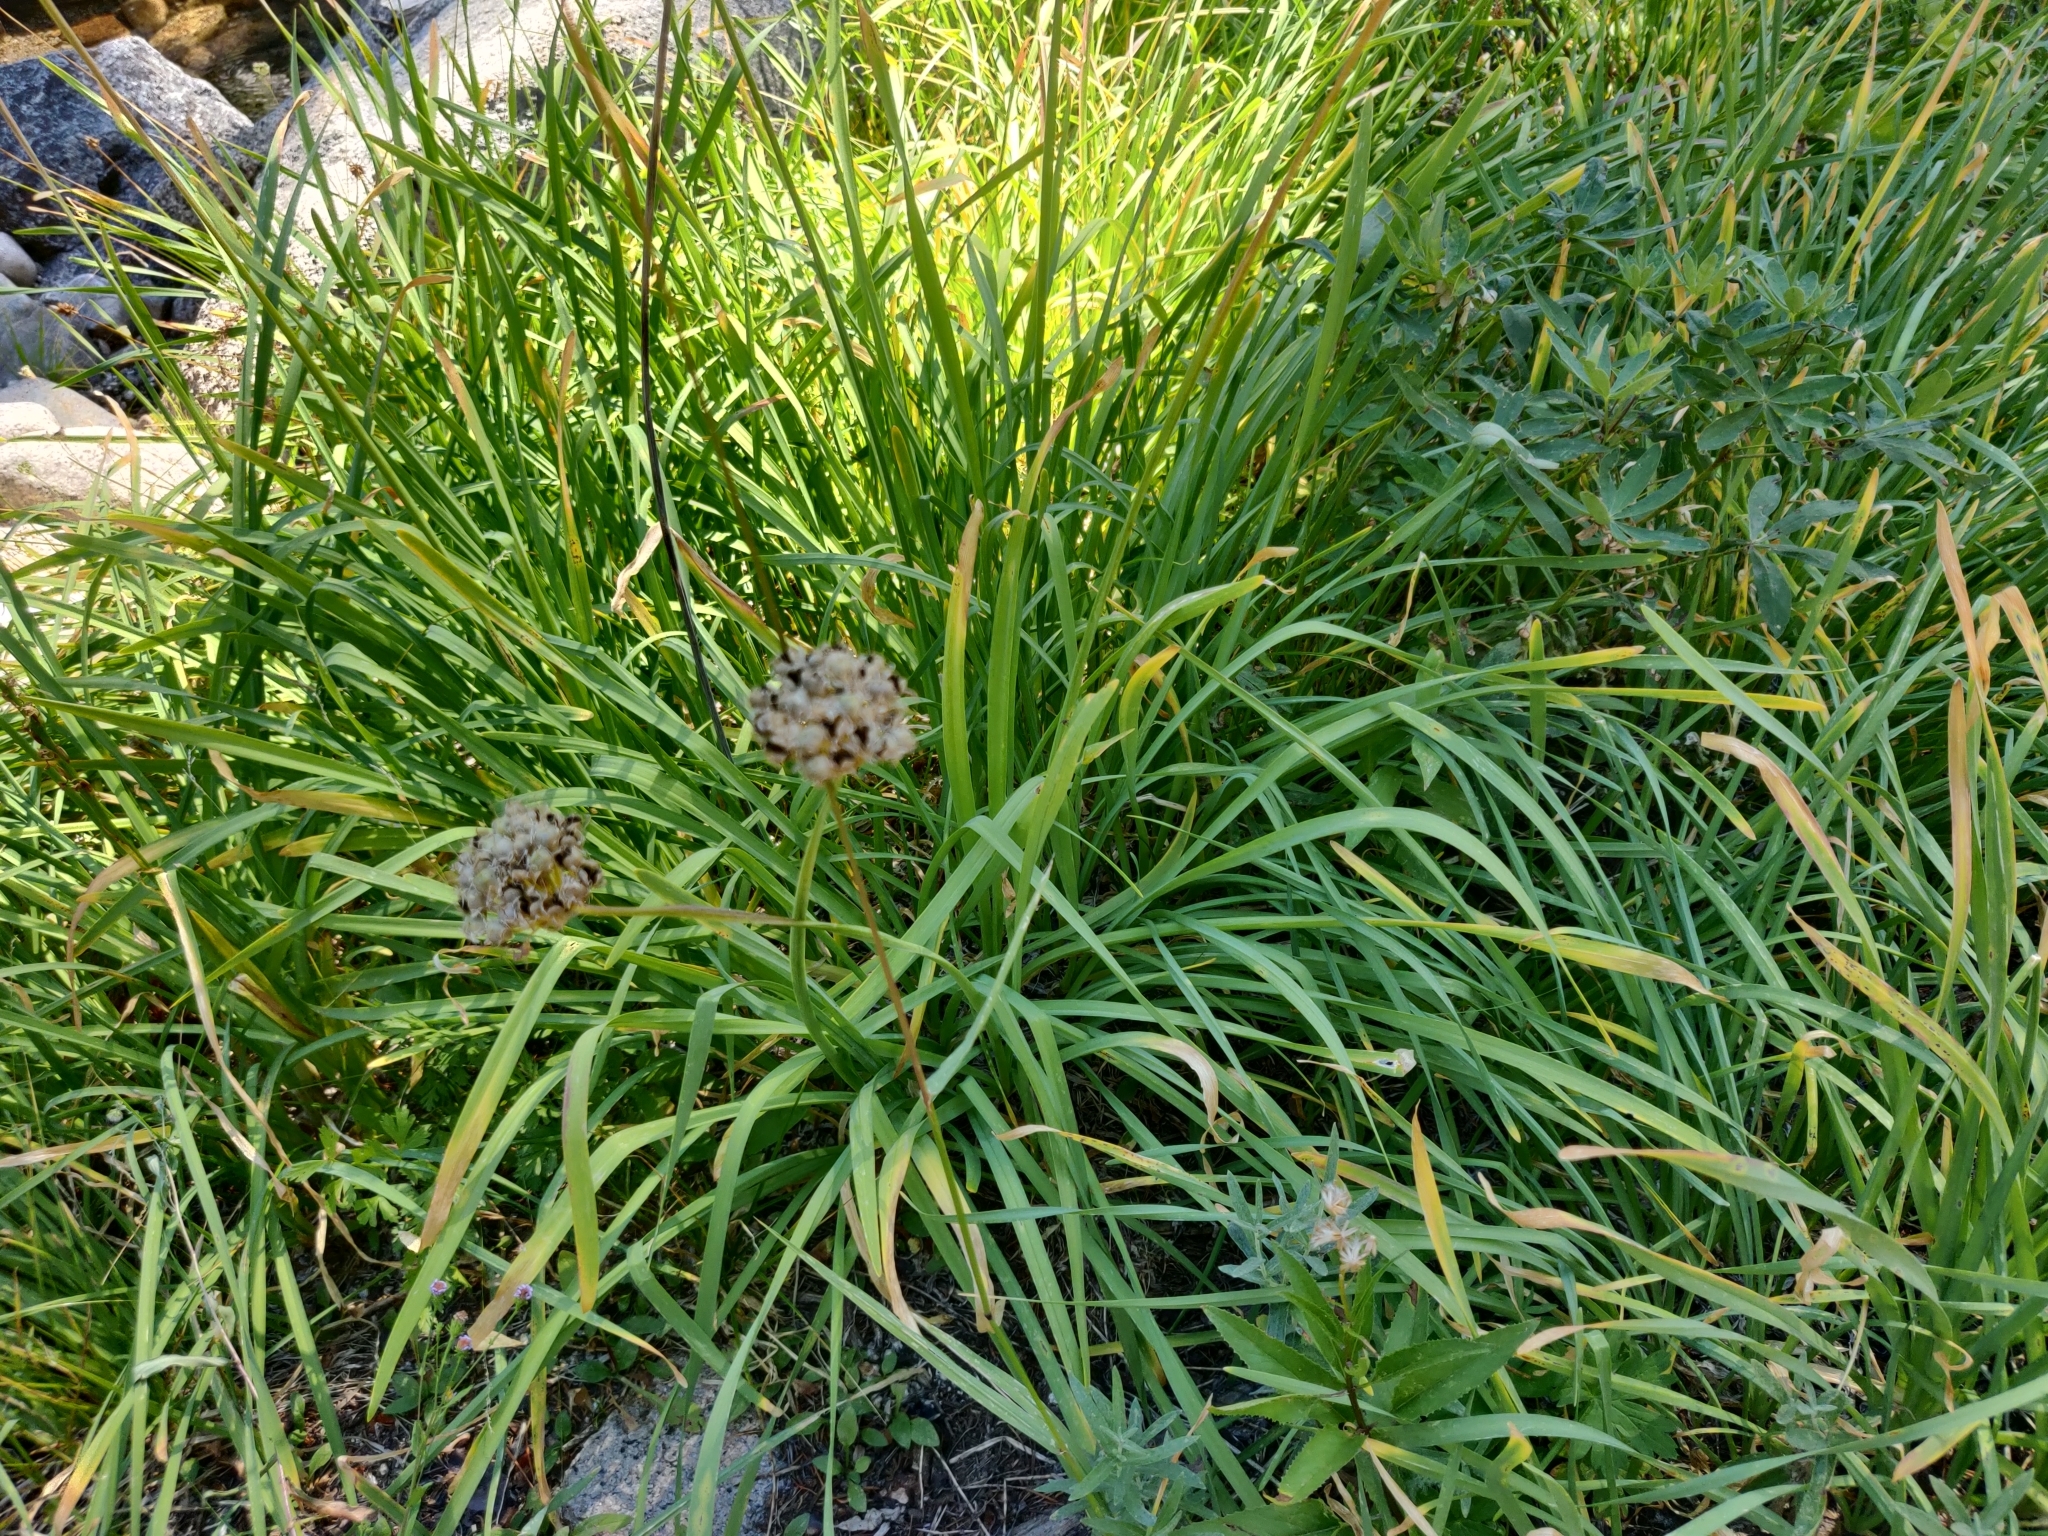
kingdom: Plantae
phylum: Tracheophyta
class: Liliopsida
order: Asparagales
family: Amaryllidaceae
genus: Allium
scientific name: Allium validum
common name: Pacific mountain onion
